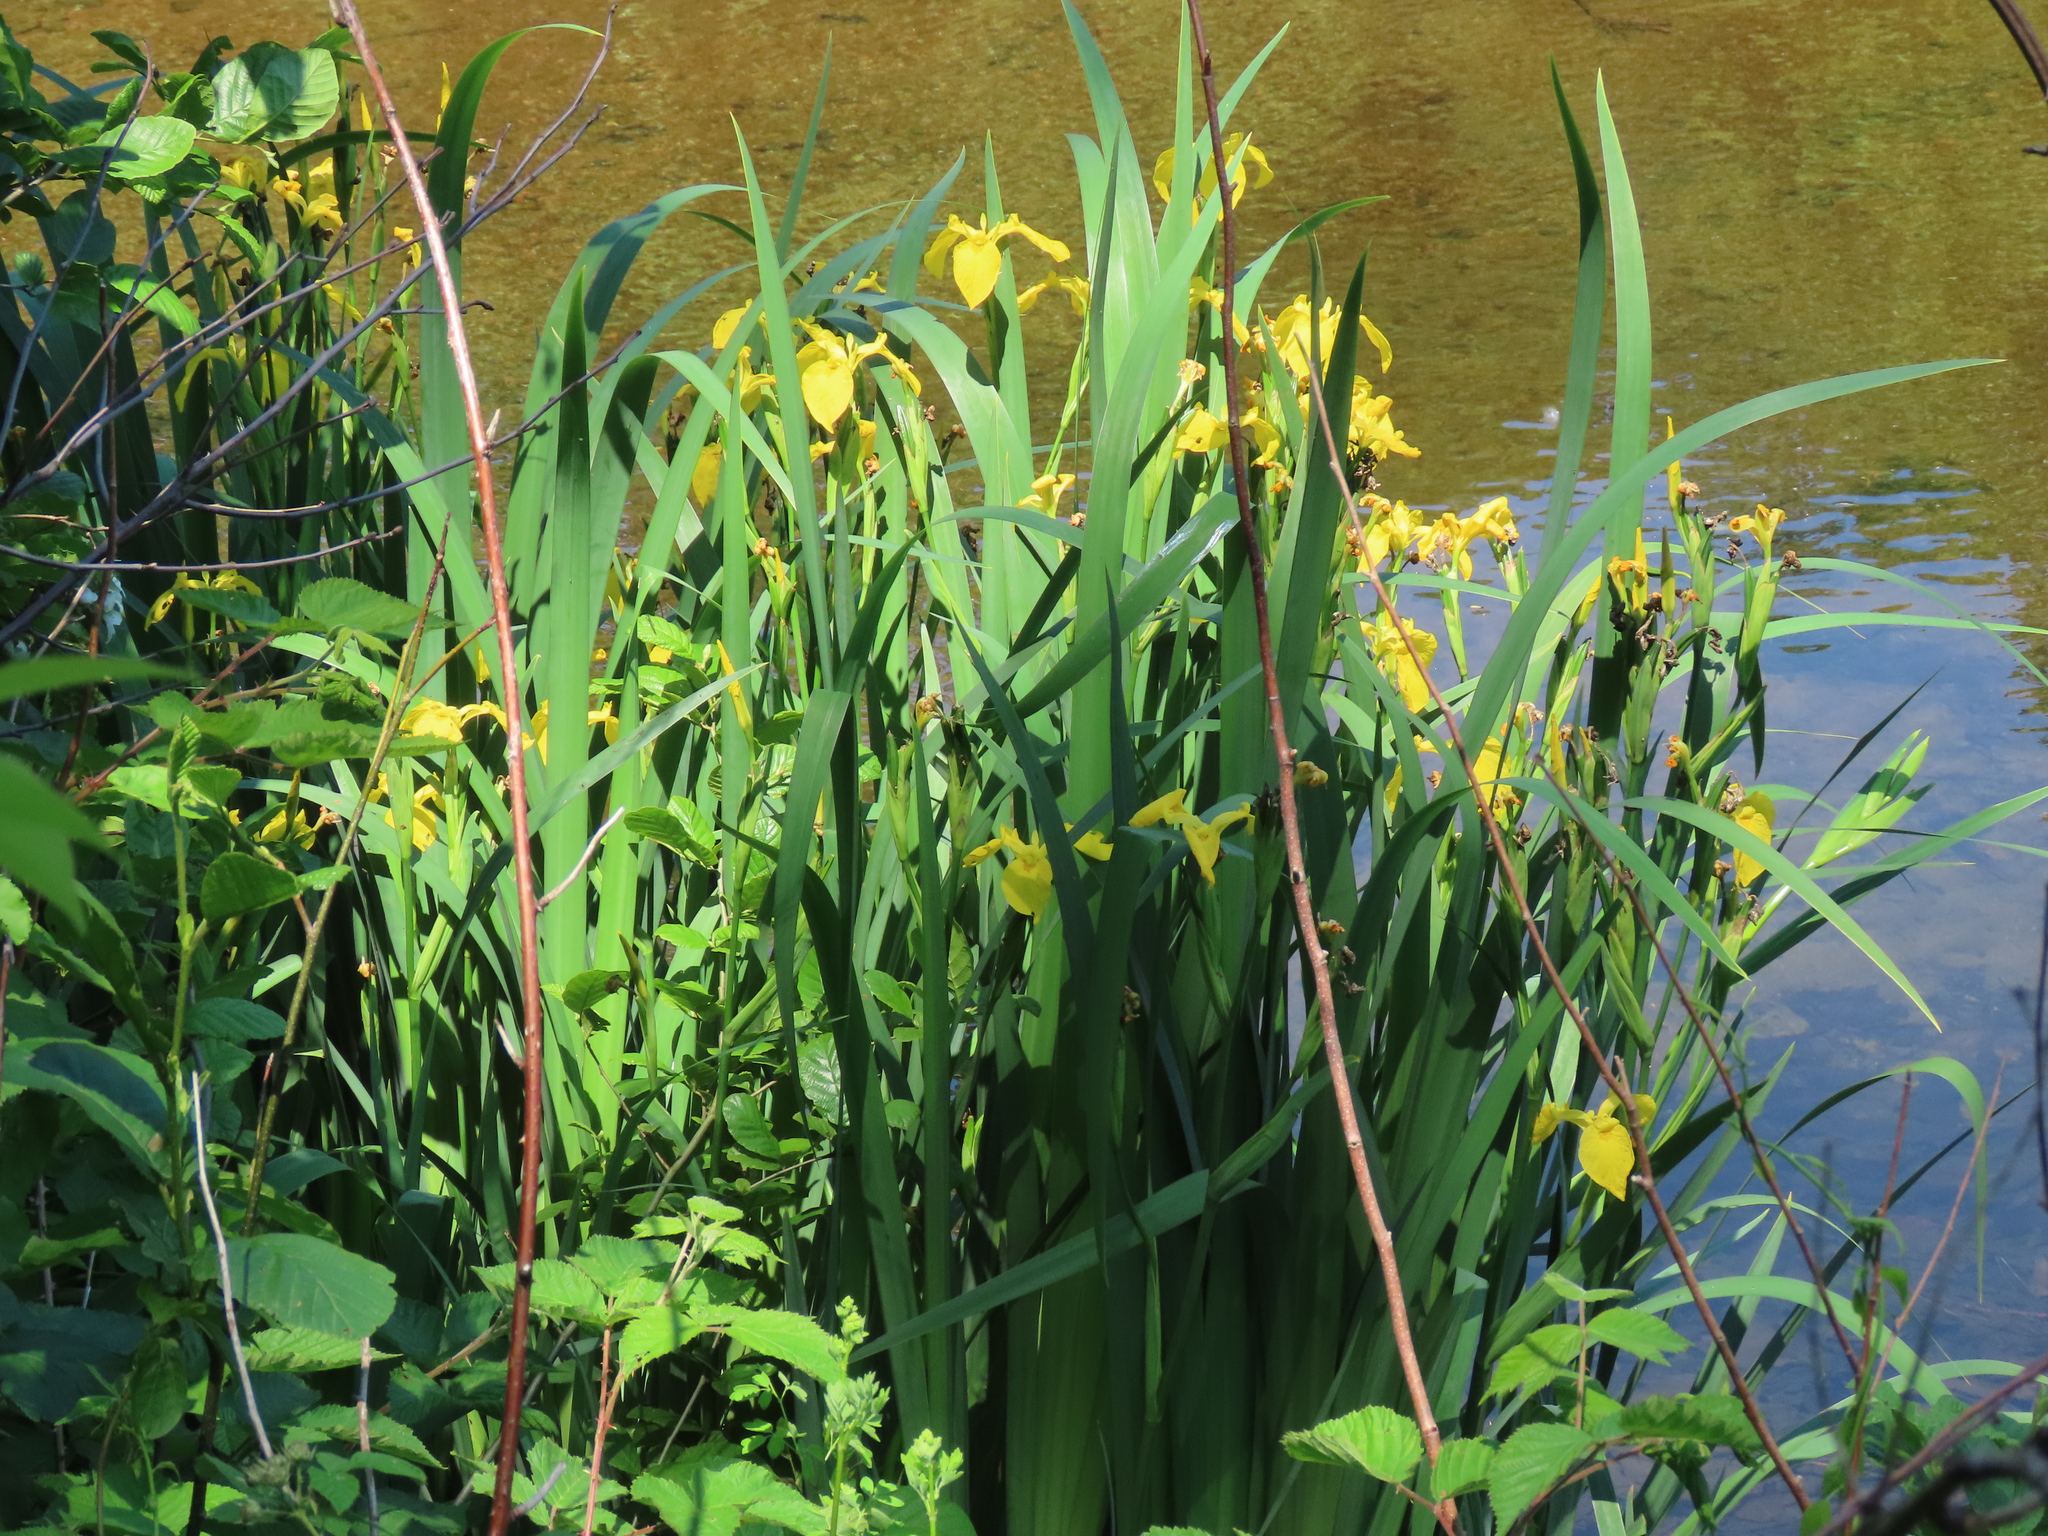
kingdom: Plantae
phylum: Tracheophyta
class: Liliopsida
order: Asparagales
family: Iridaceae
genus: Iris
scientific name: Iris pseudacorus
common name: Yellow flag
